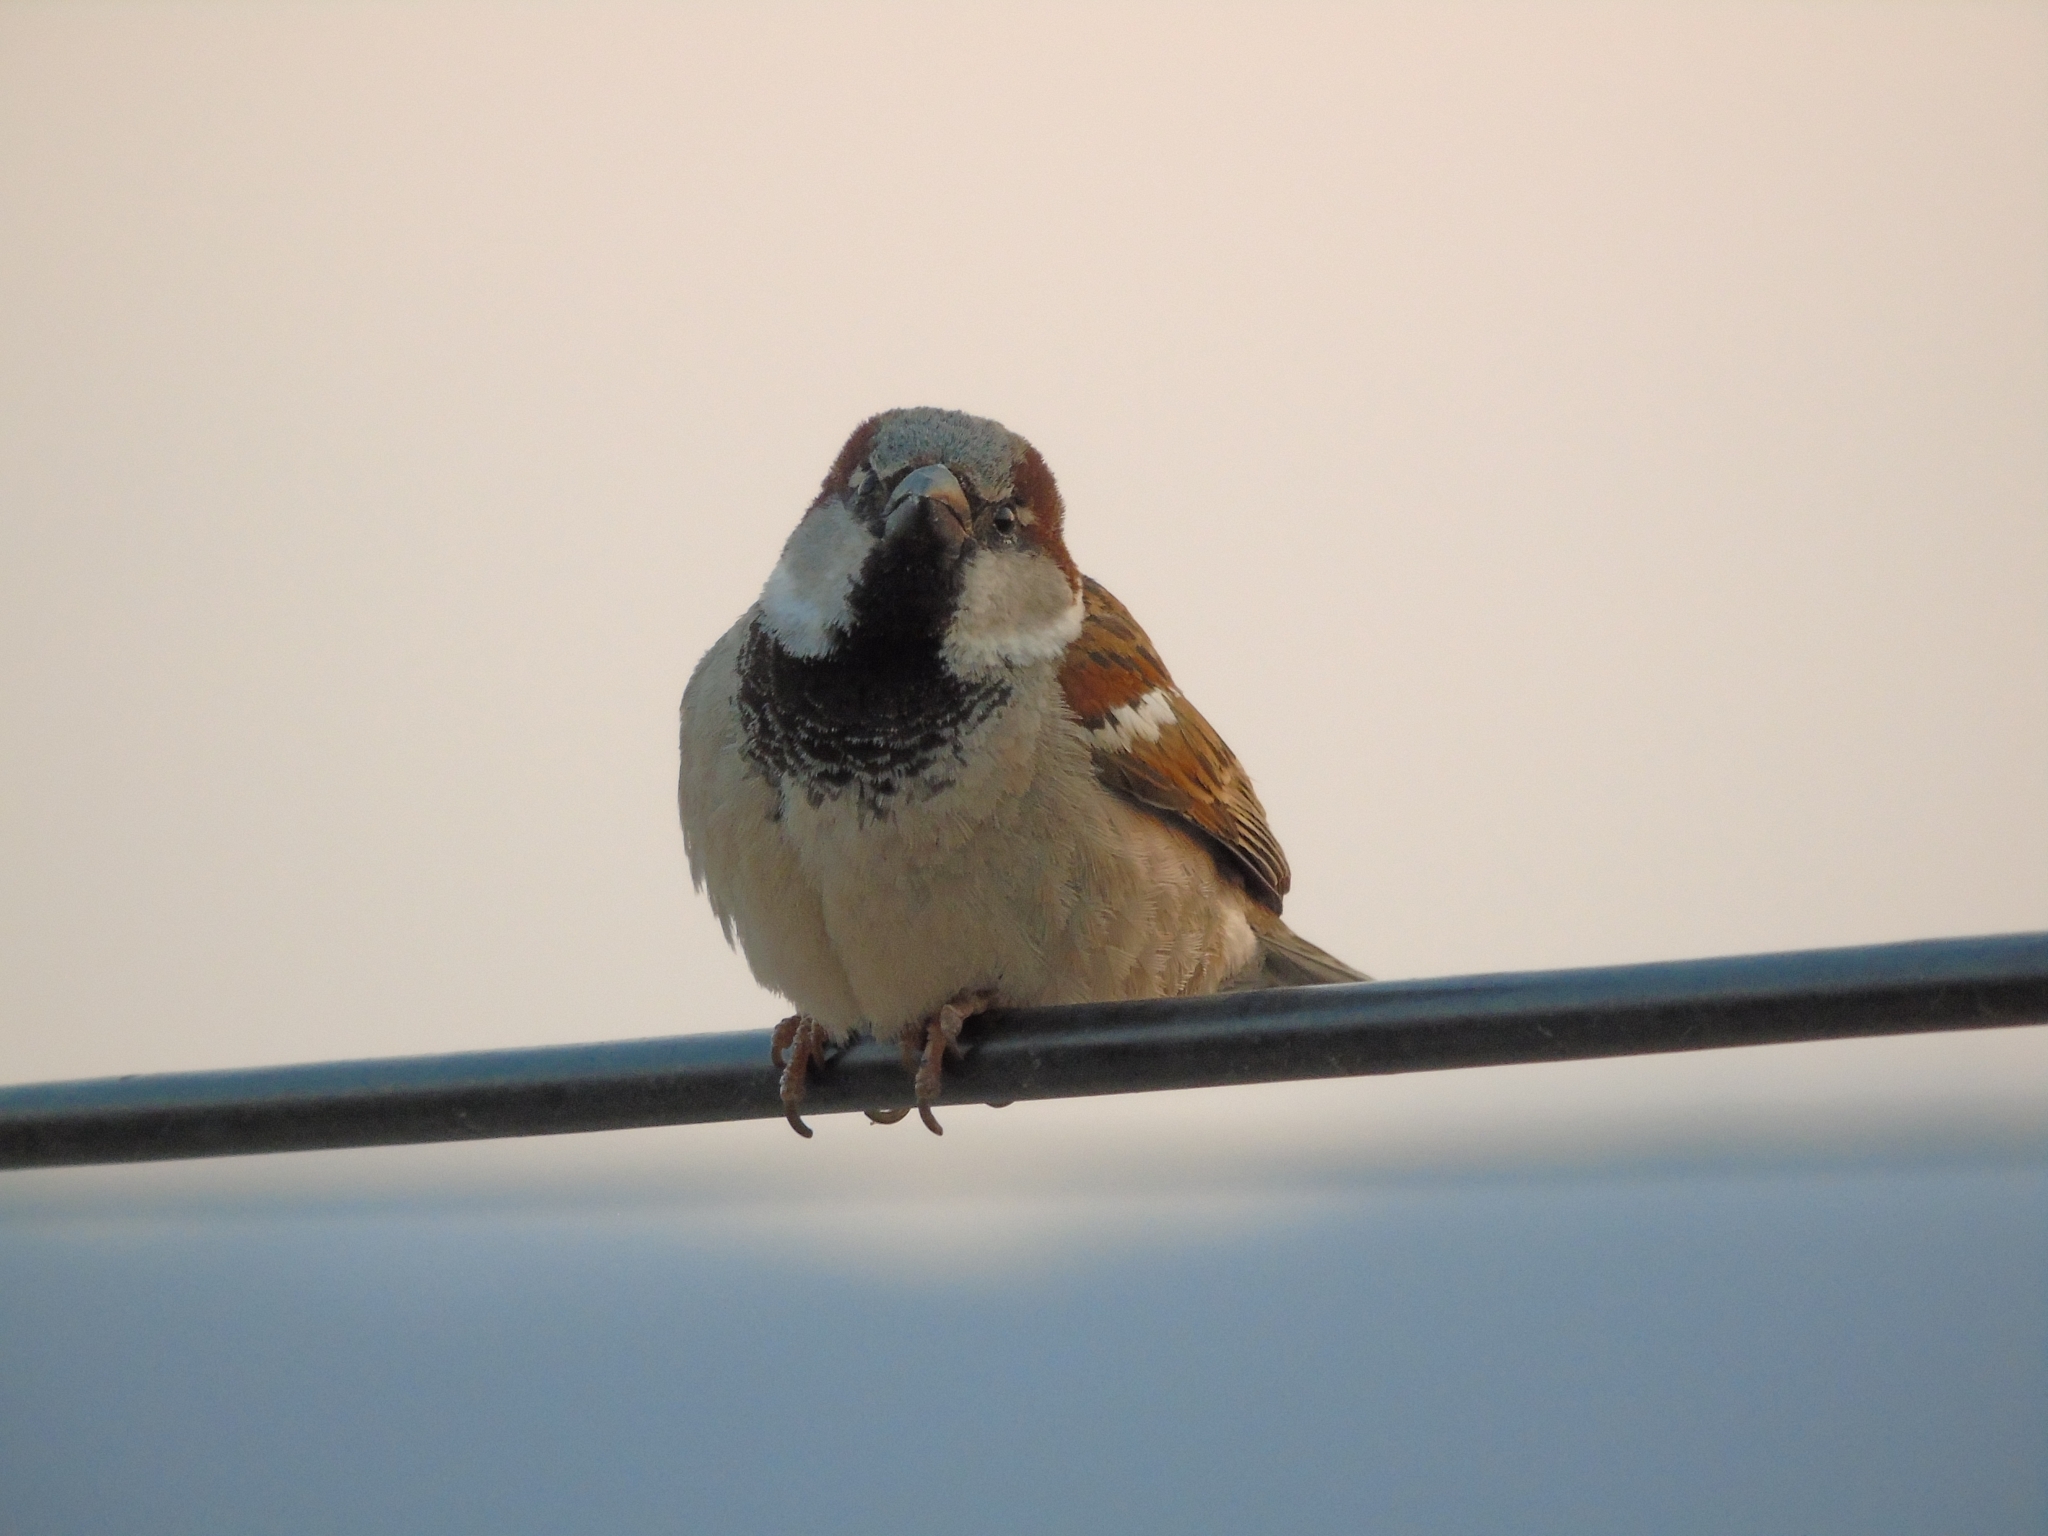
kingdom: Animalia
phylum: Chordata
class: Aves
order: Passeriformes
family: Passeridae
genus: Passer
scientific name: Passer domesticus
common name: House sparrow
